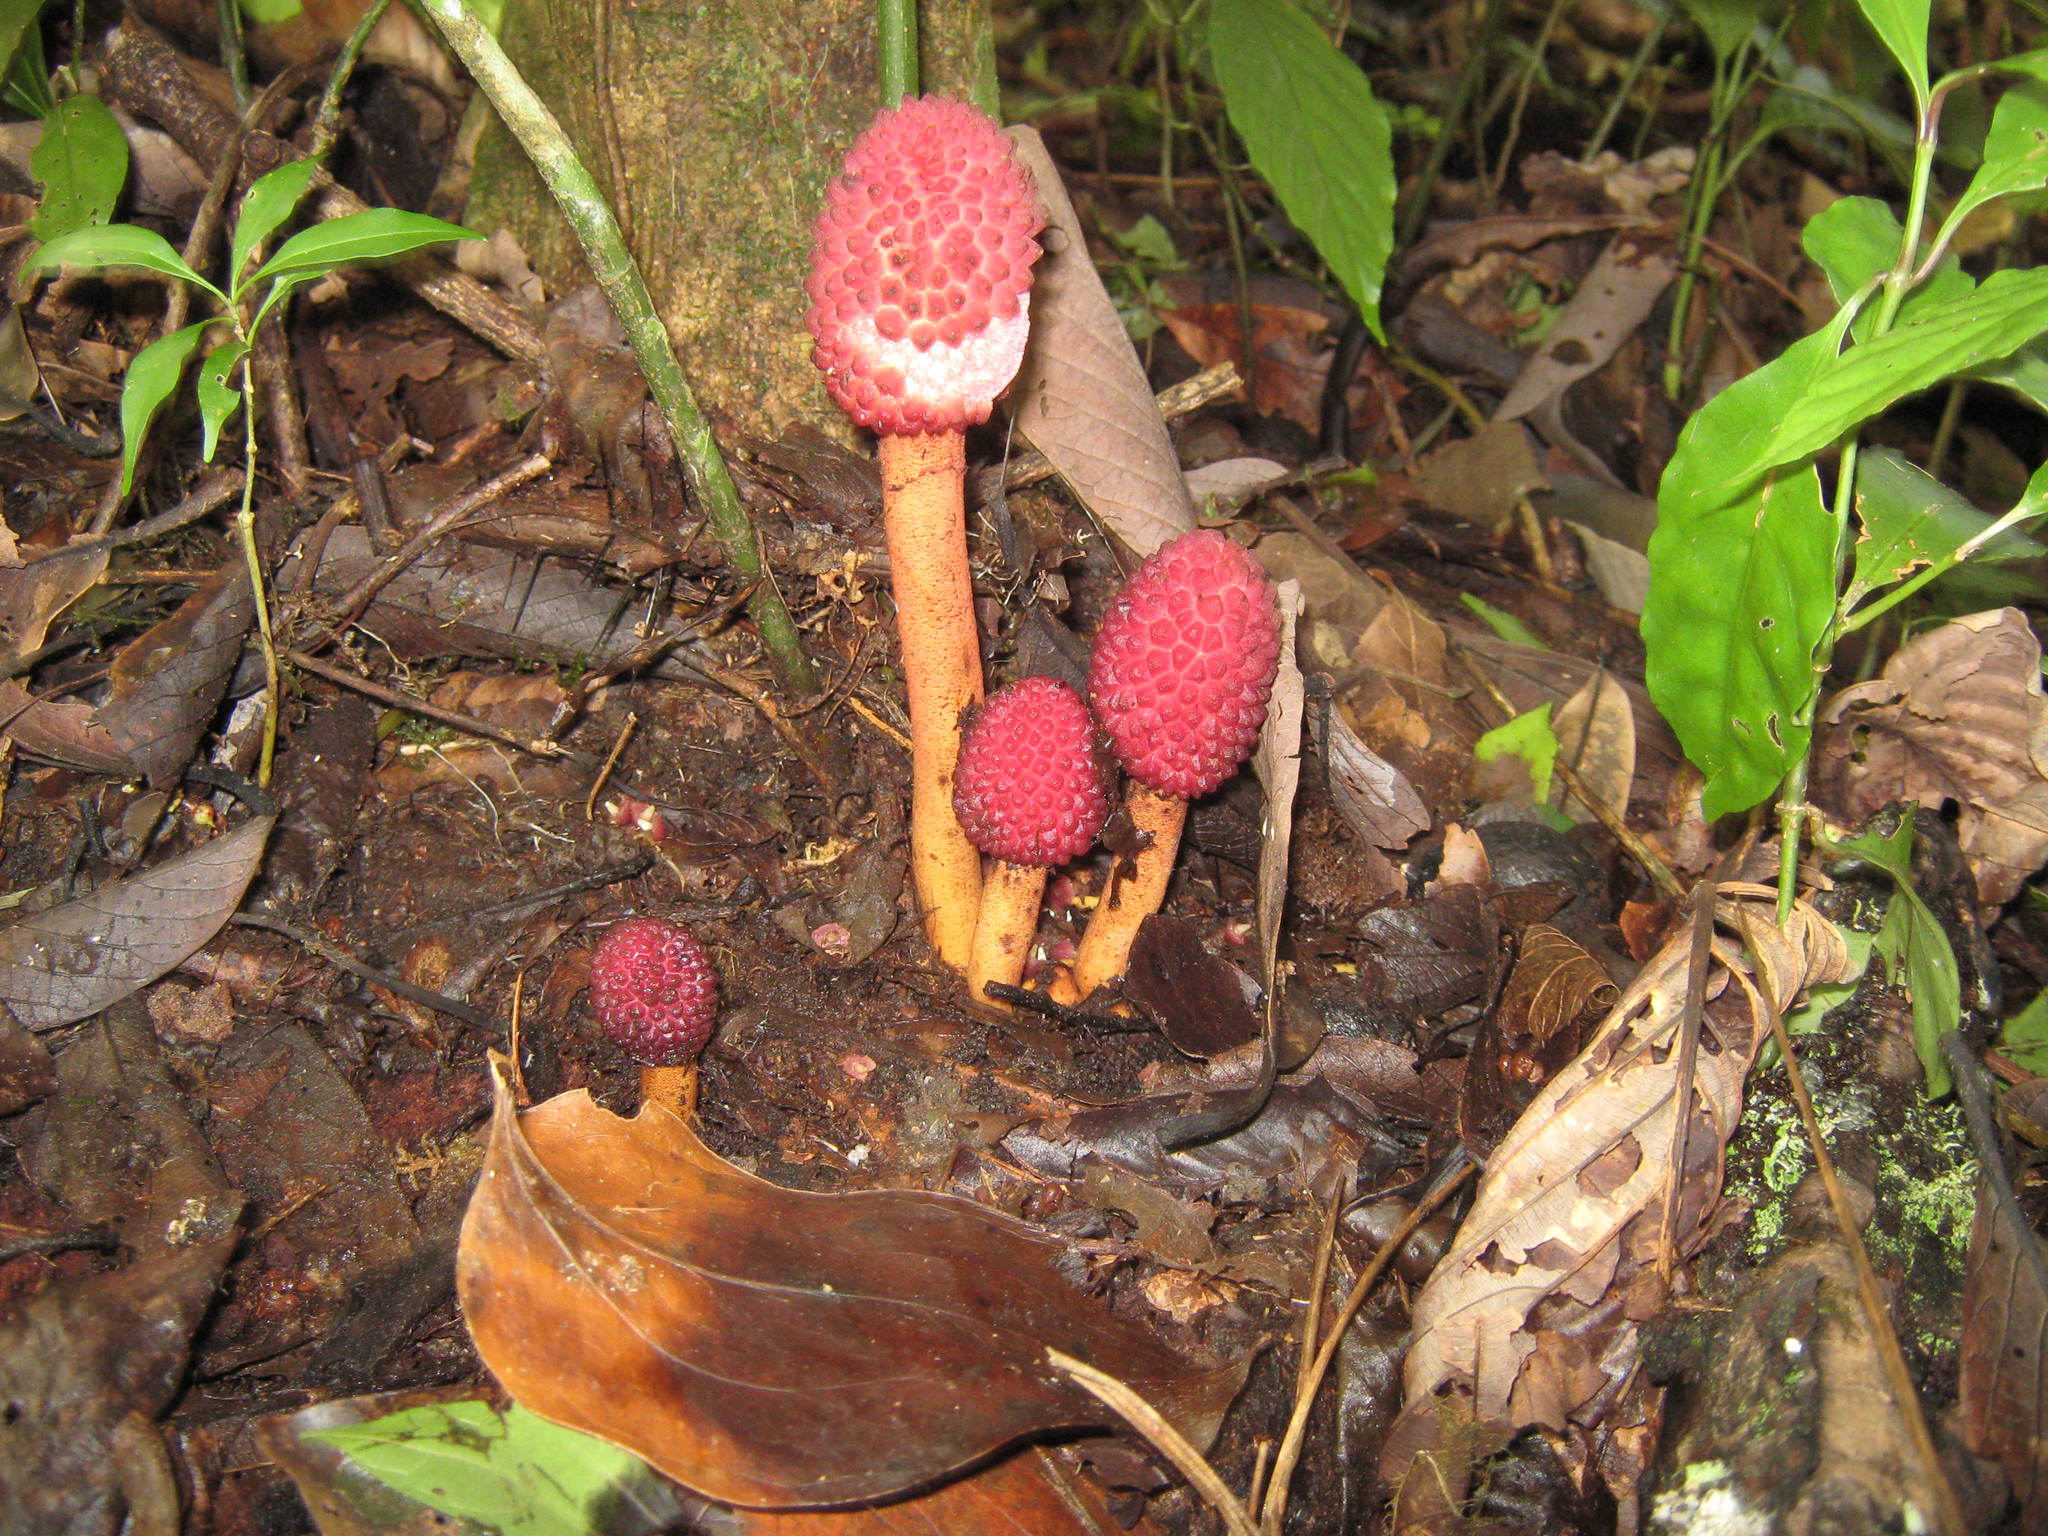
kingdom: Plantae
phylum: Tracheophyta
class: Magnoliopsida
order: Santalales
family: Balanophoraceae
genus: Helosis
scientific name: Helosis cayennensis
